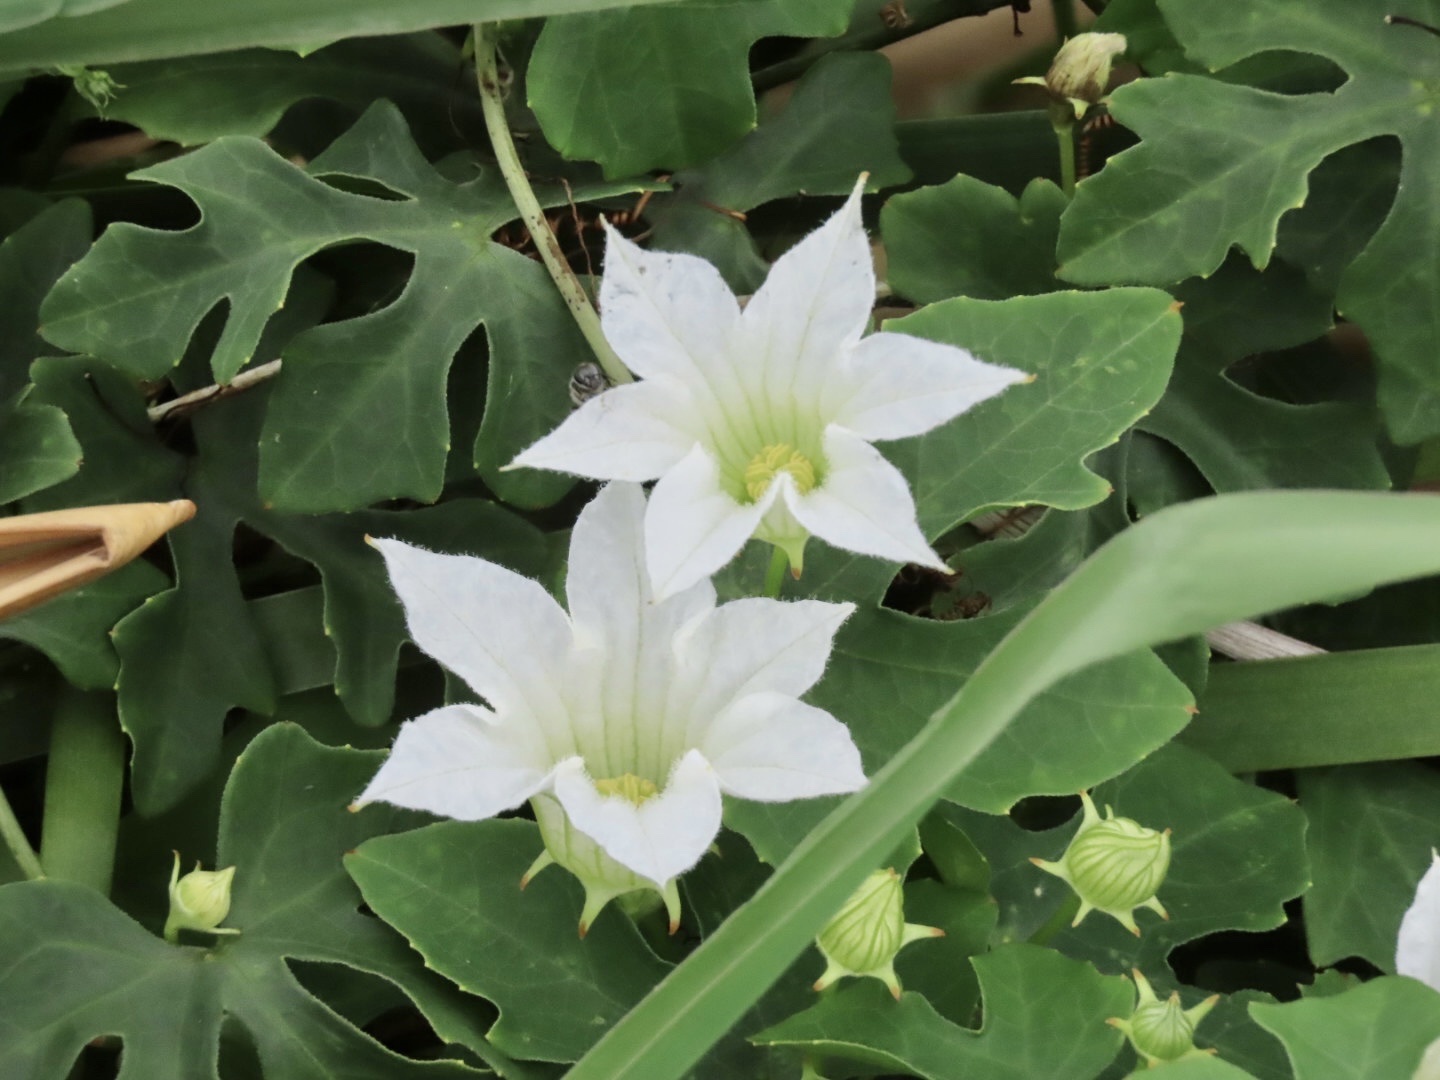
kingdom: Plantae
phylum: Tracheophyta
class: Magnoliopsida
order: Cucurbitales
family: Cucurbitaceae
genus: Coccinia
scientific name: Coccinia grandis
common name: Ivy gourd
